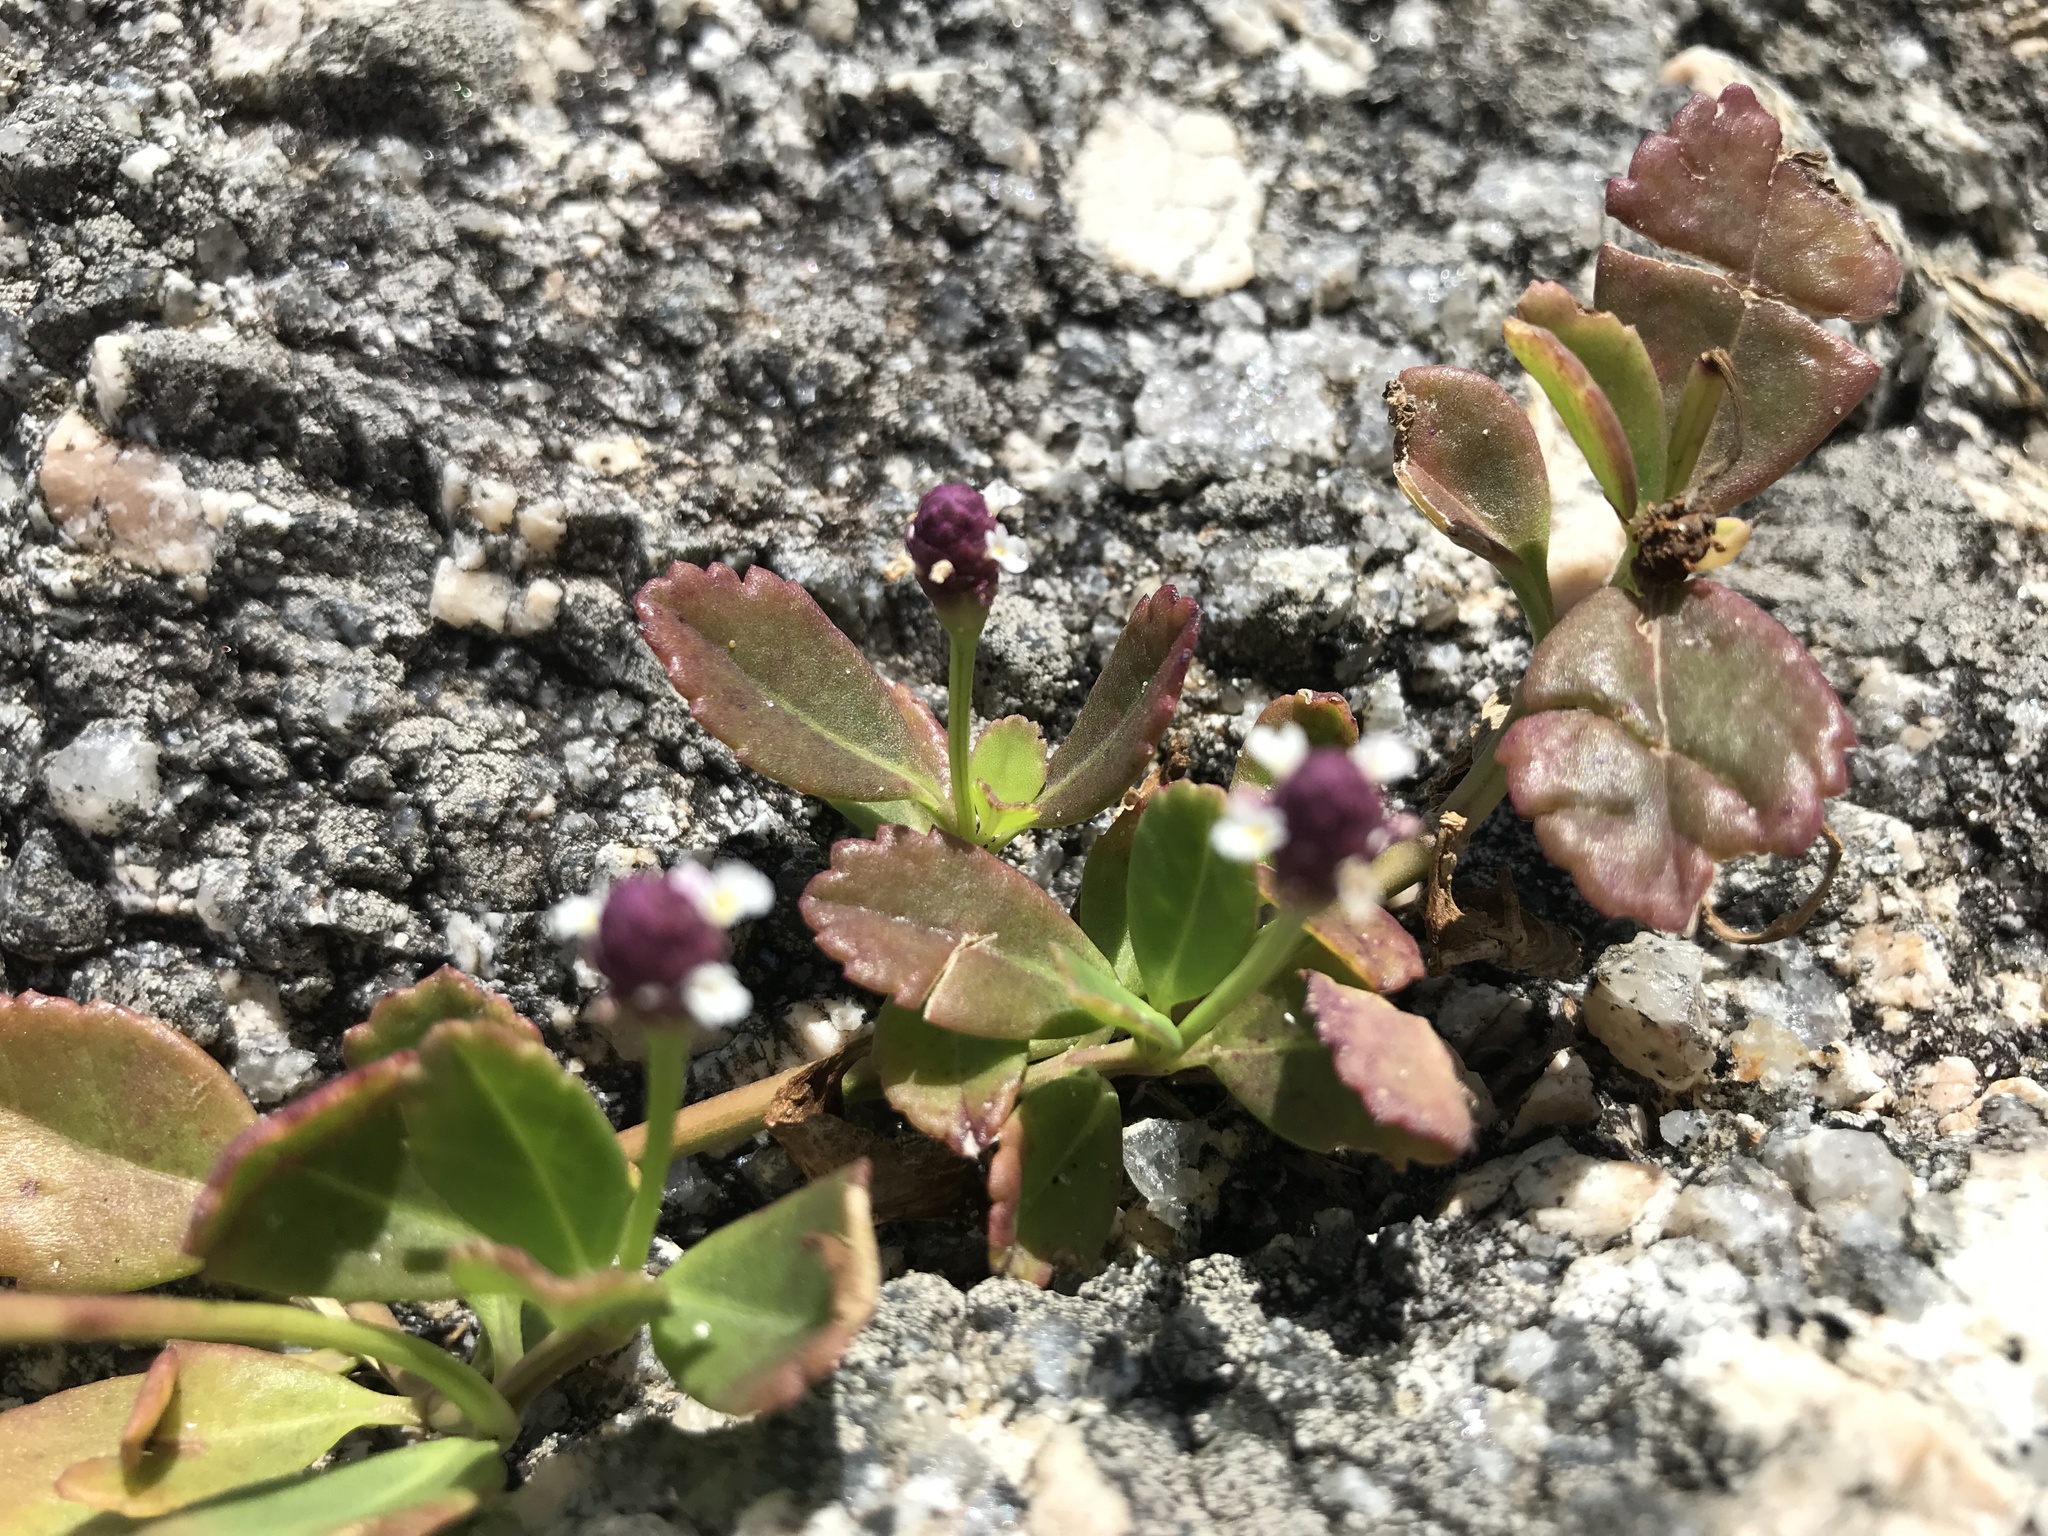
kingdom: Plantae
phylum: Tracheophyta
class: Magnoliopsida
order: Lamiales
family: Verbenaceae
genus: Phyla
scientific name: Phyla nodiflora
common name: Frogfruit
